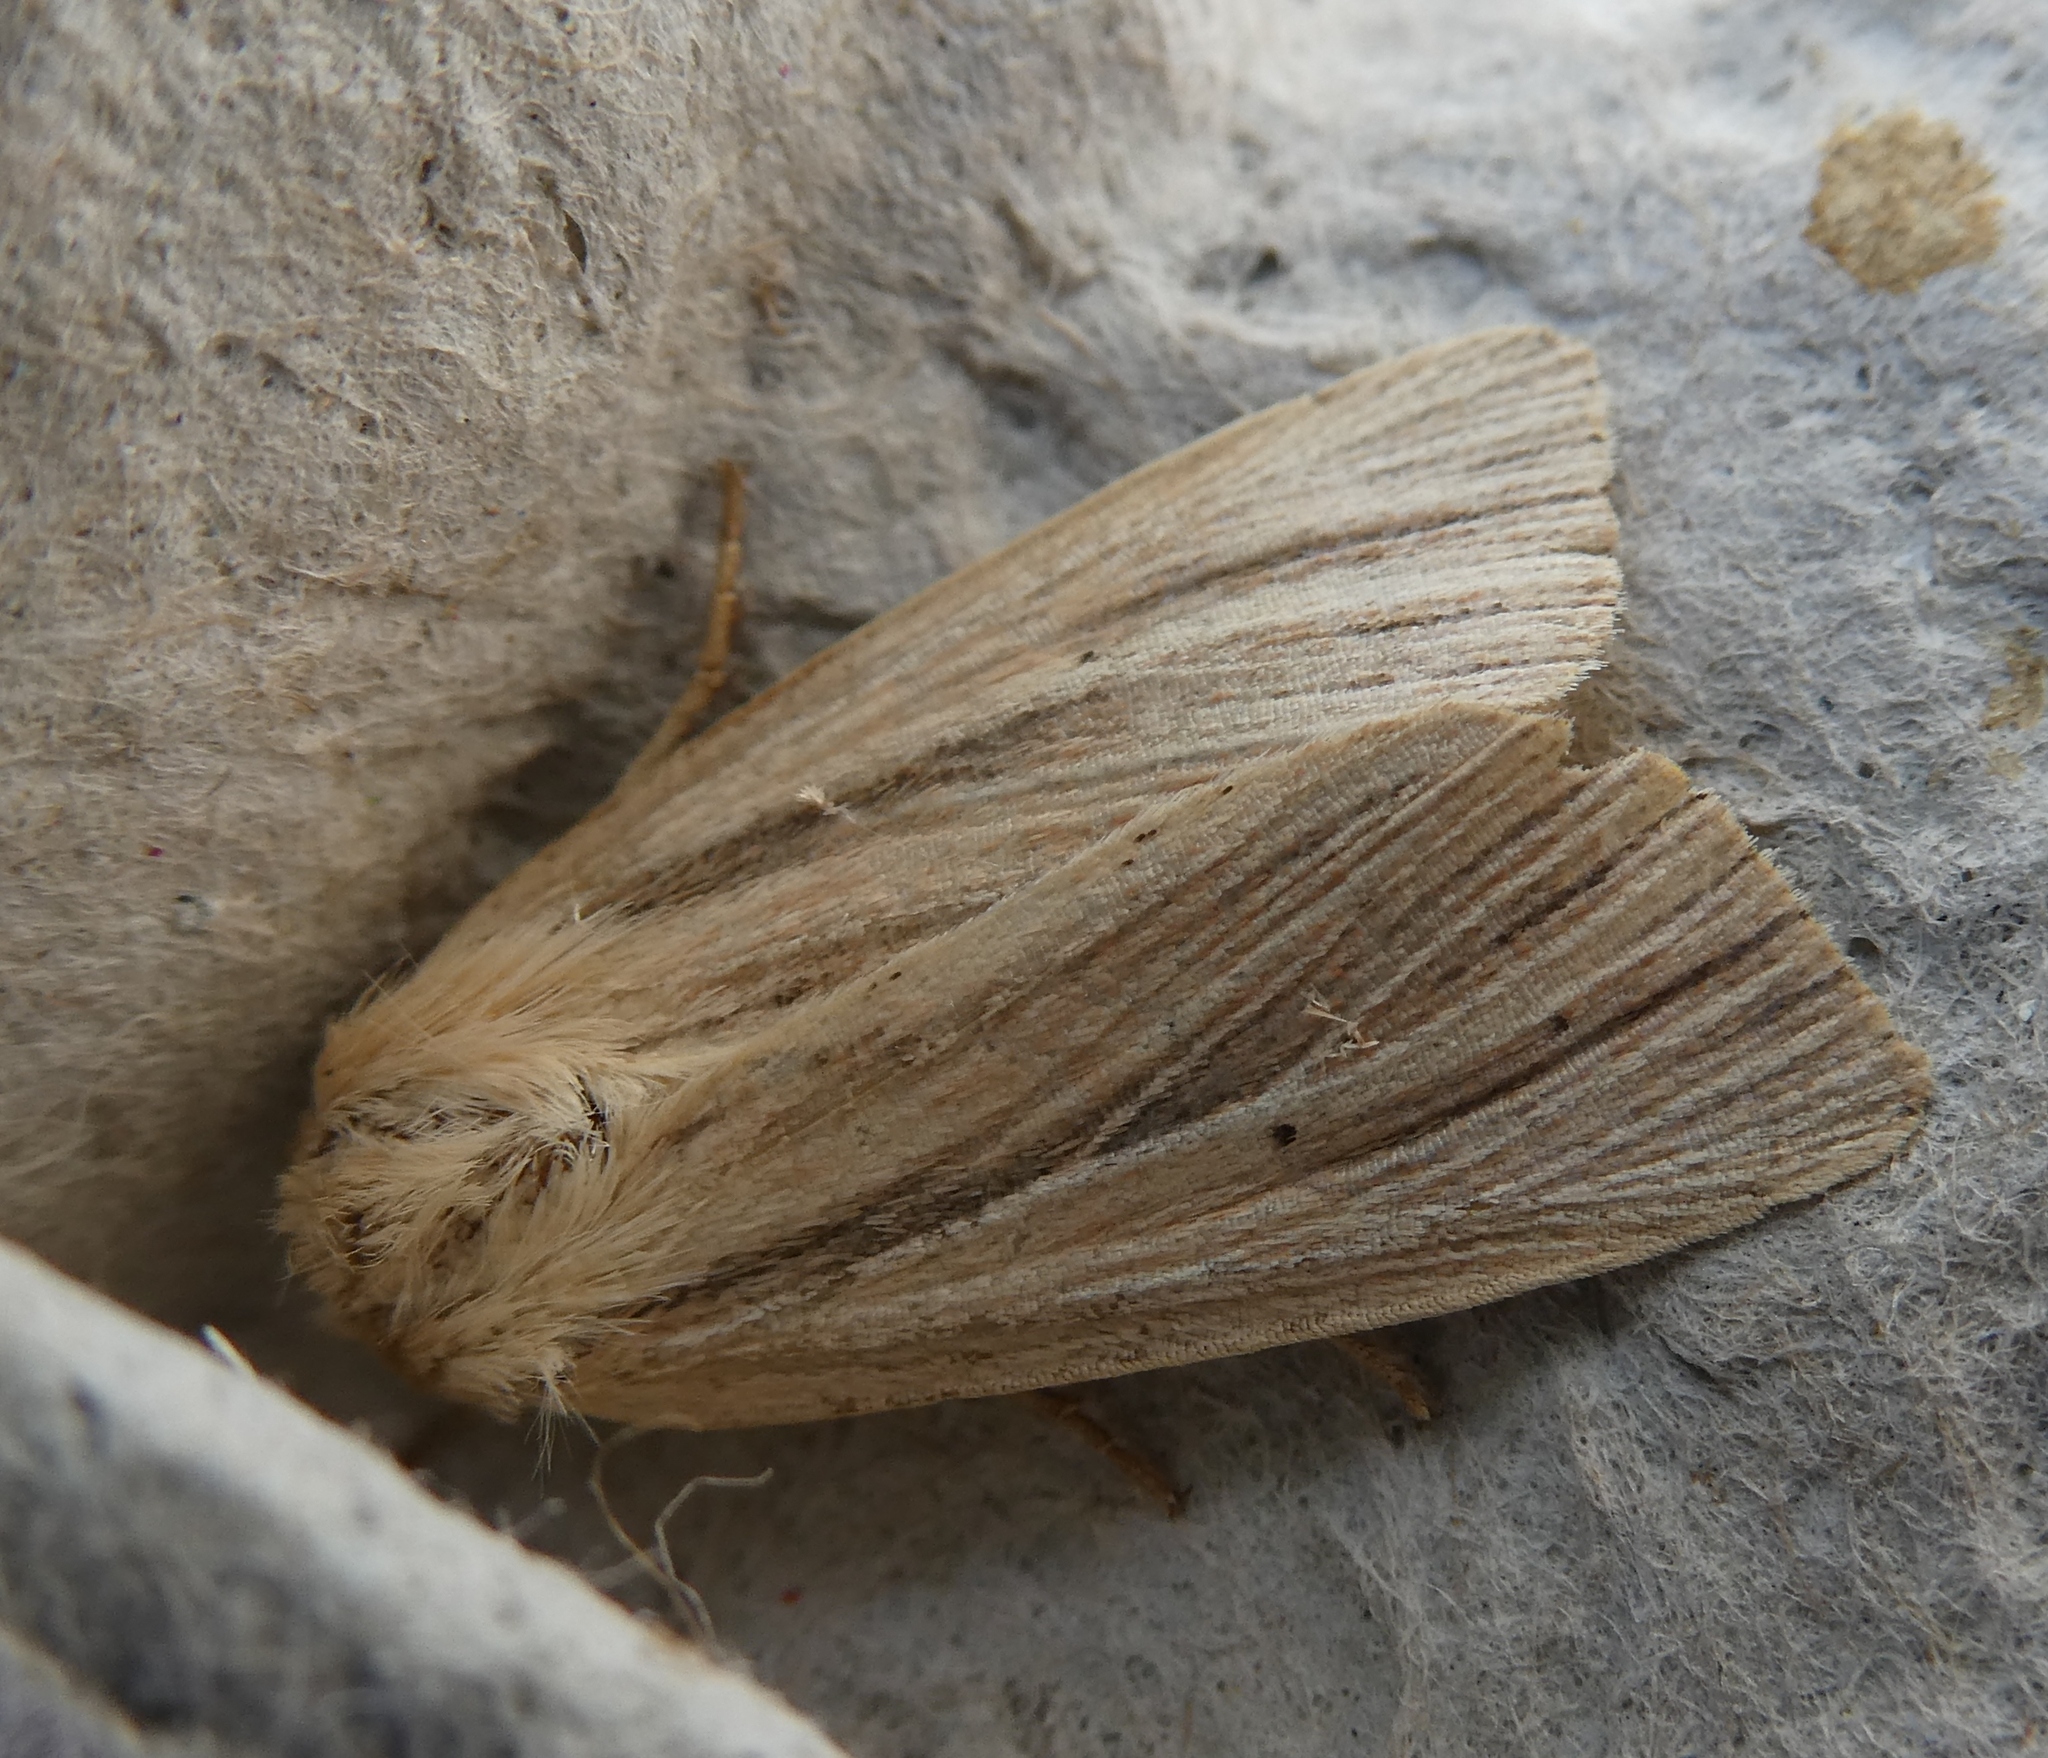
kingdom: Animalia
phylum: Arthropoda
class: Insecta
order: Lepidoptera
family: Noctuidae
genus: Mythimna
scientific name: Mythimna impura
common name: Smoky wainscot
